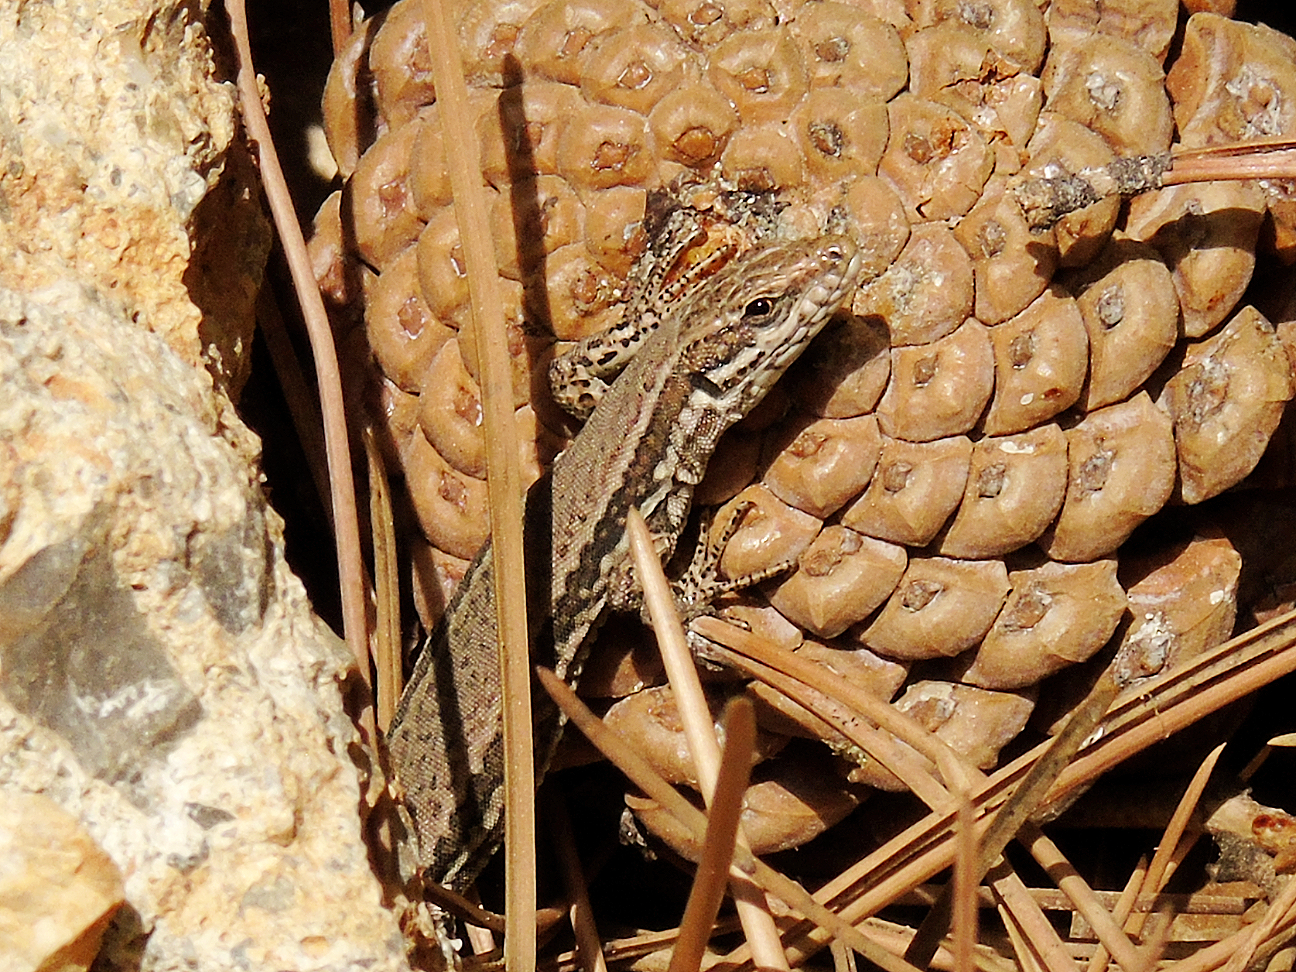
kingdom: Animalia
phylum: Chordata
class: Squamata
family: Lacertidae
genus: Podarcis
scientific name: Podarcis muralis
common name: Common wall lizard
